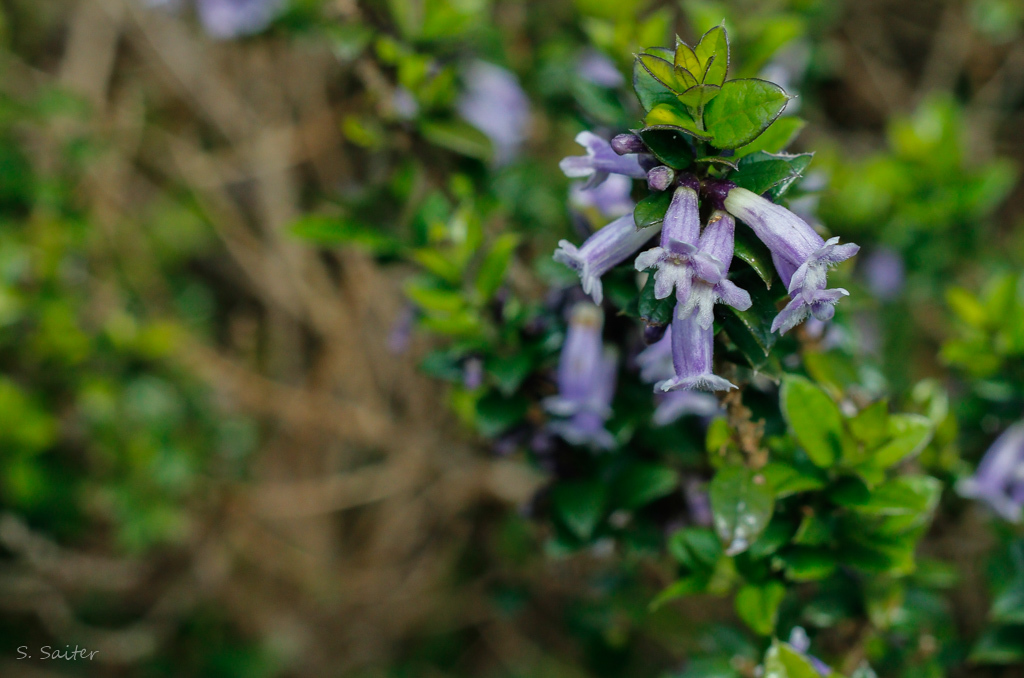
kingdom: Plantae
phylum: Tracheophyta
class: Magnoliopsida
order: Lamiales
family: Verbenaceae
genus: Rhaphithamnus
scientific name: Rhaphithamnus spinosus
